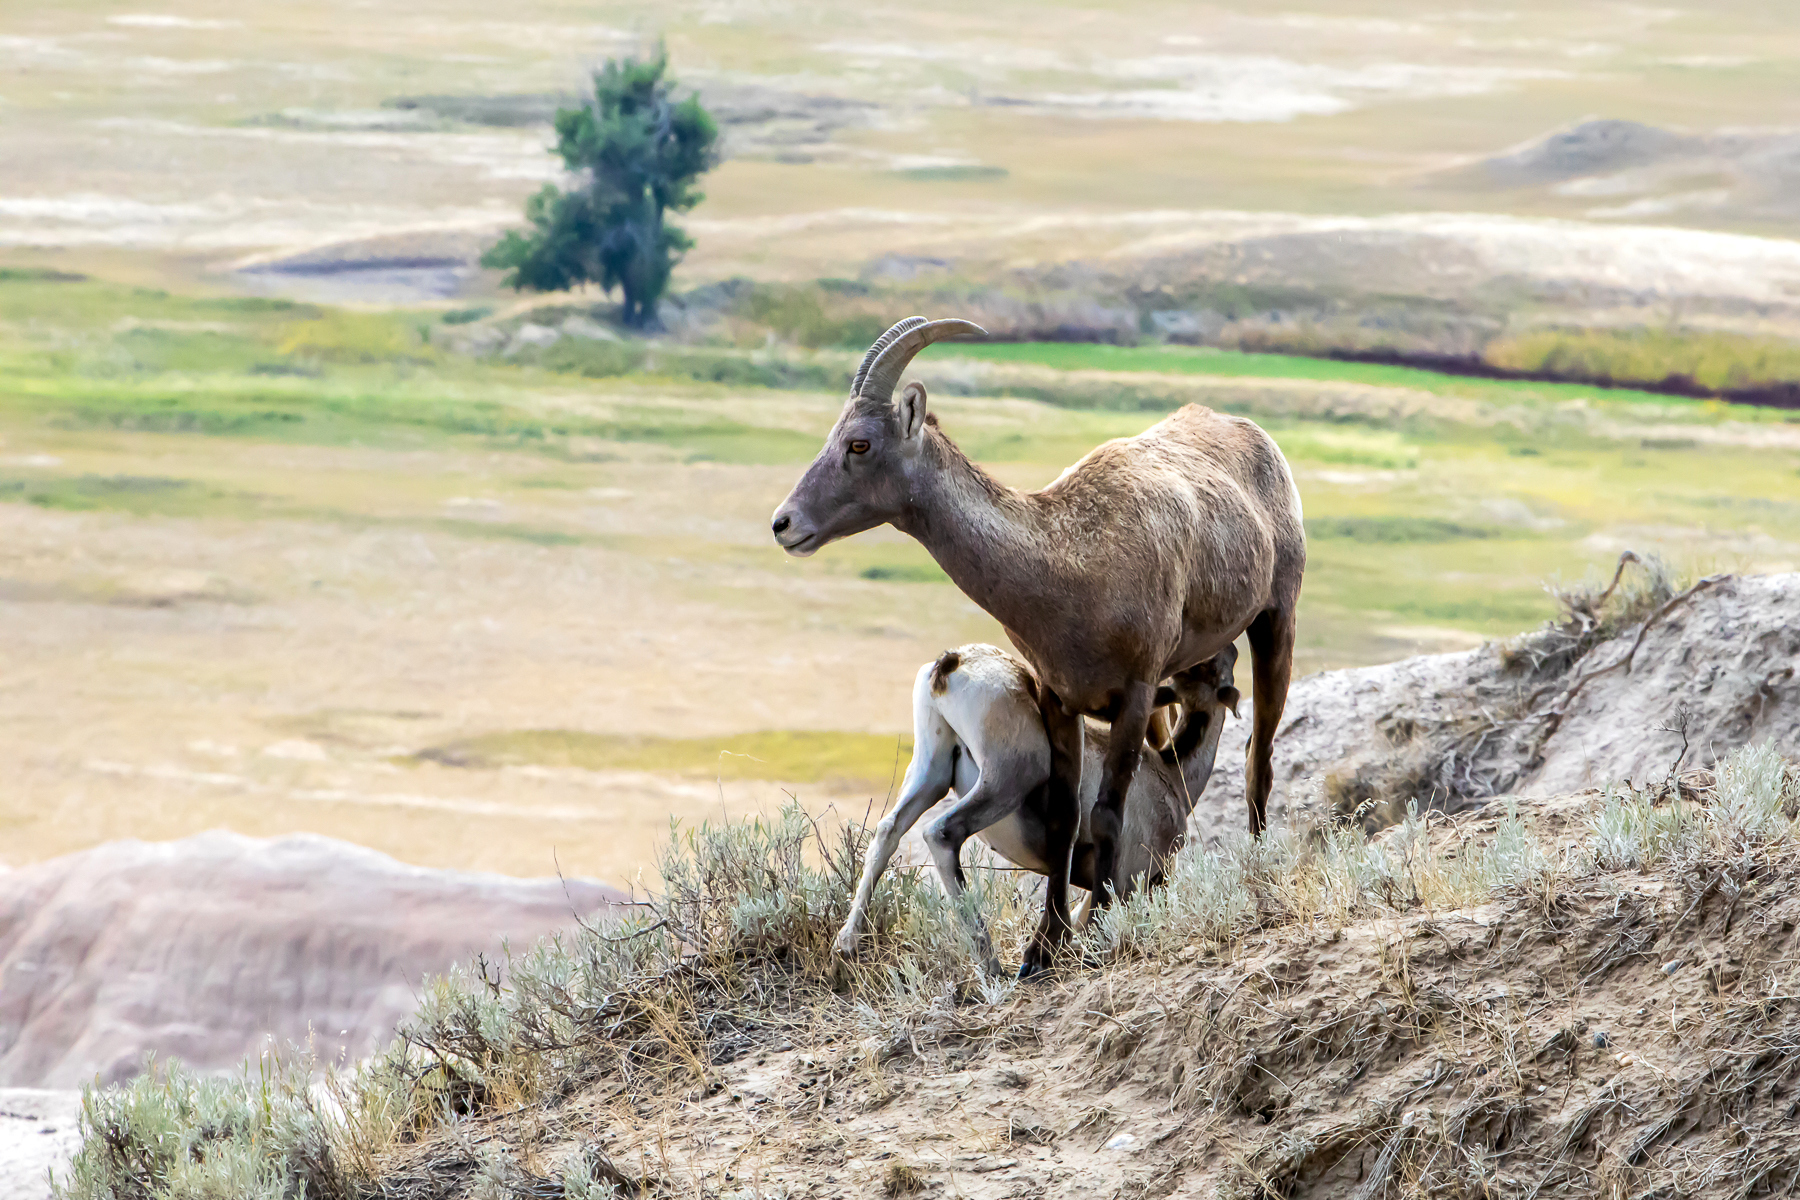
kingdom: Animalia
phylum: Chordata
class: Mammalia
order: Artiodactyla
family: Bovidae
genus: Ovis
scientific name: Ovis canadensis
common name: Bighorn sheep
